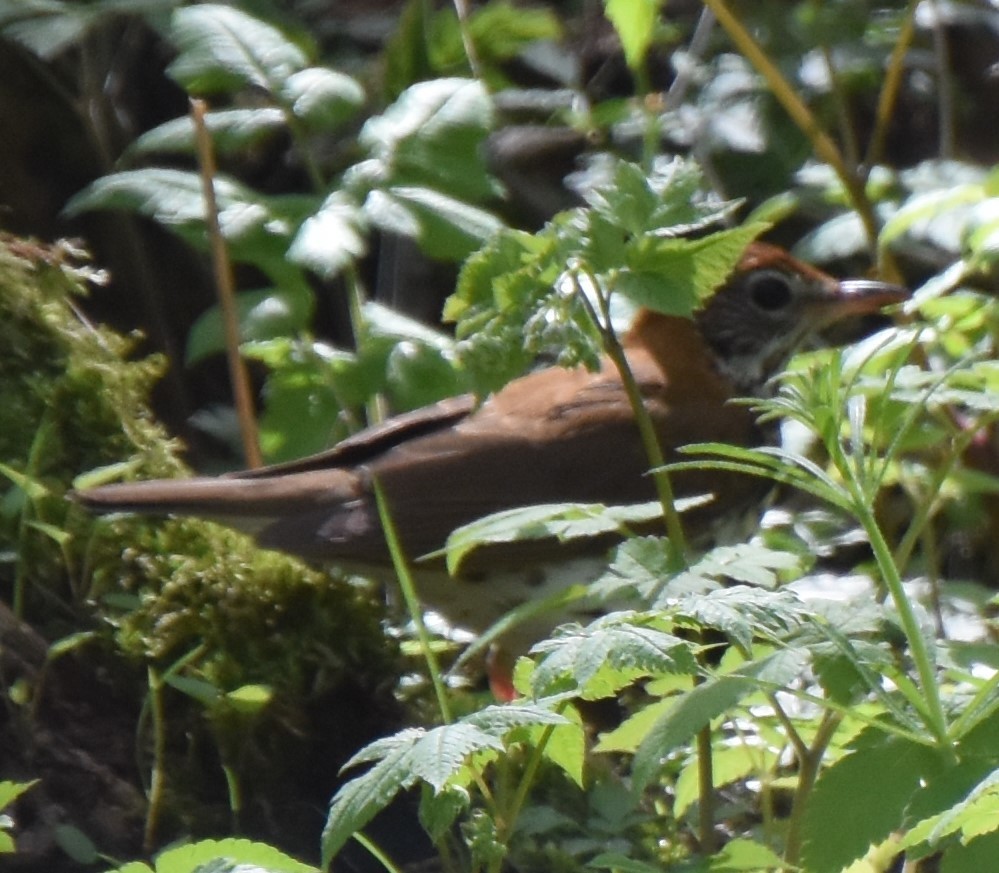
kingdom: Animalia
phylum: Chordata
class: Aves
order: Passeriformes
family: Turdidae
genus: Hylocichla
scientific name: Hylocichla mustelina
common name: Wood thrush
